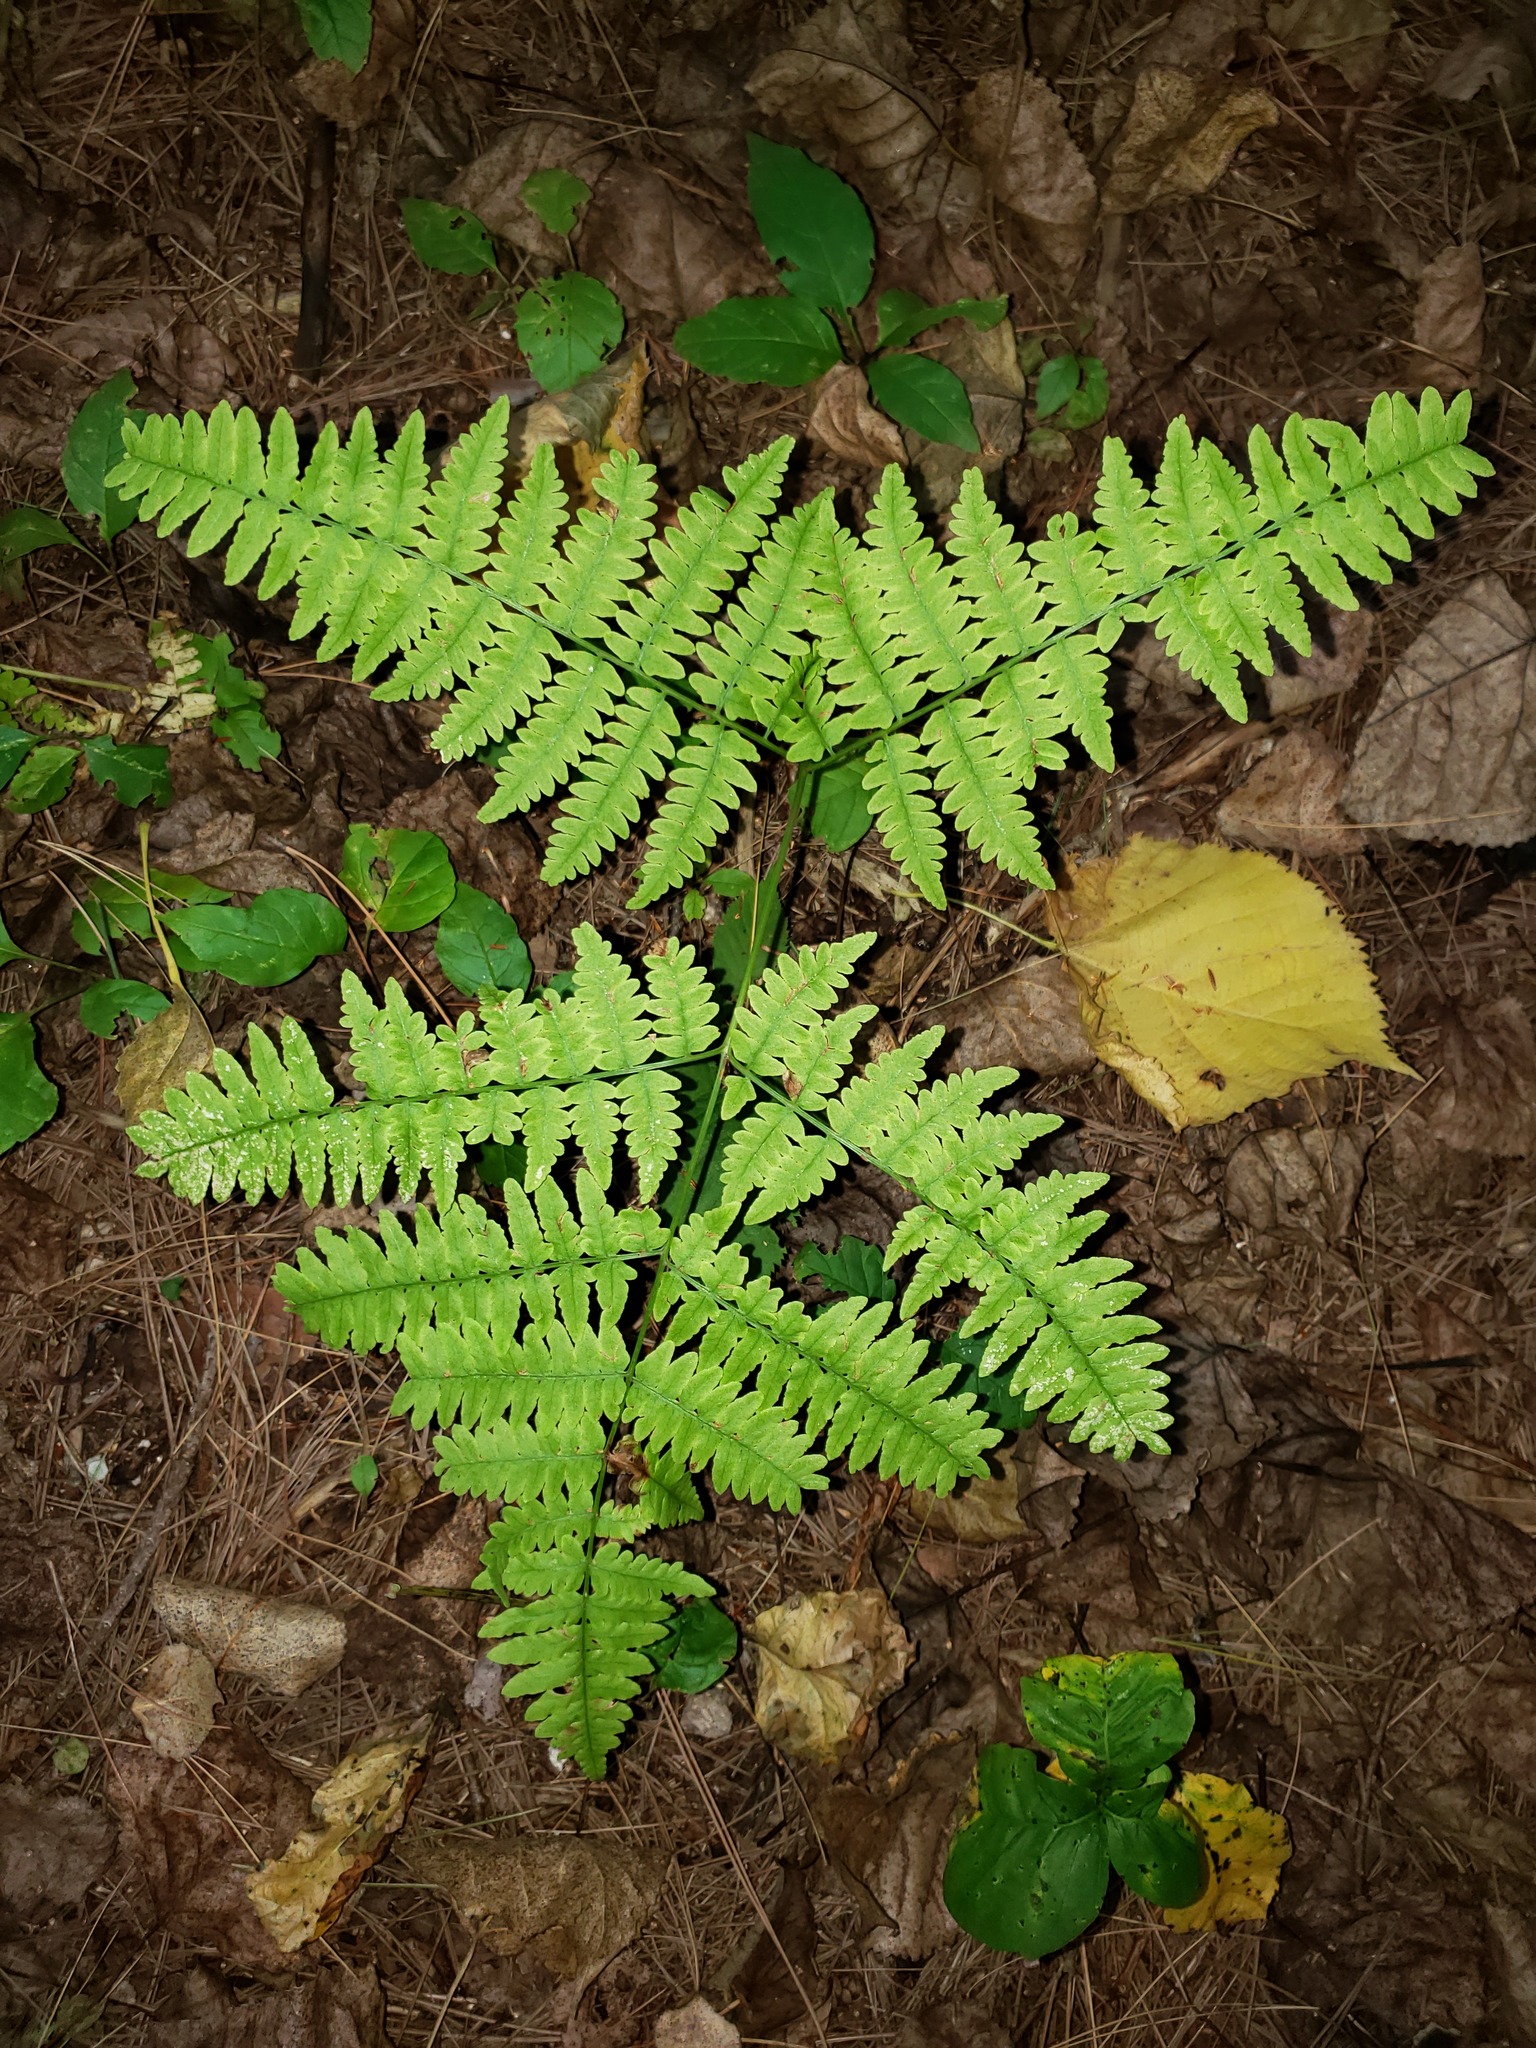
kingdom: Plantae
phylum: Tracheophyta
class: Polypodiopsida
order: Polypodiales
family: Dennstaedtiaceae
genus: Pteridium
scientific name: Pteridium aquilinum
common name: Bracken
